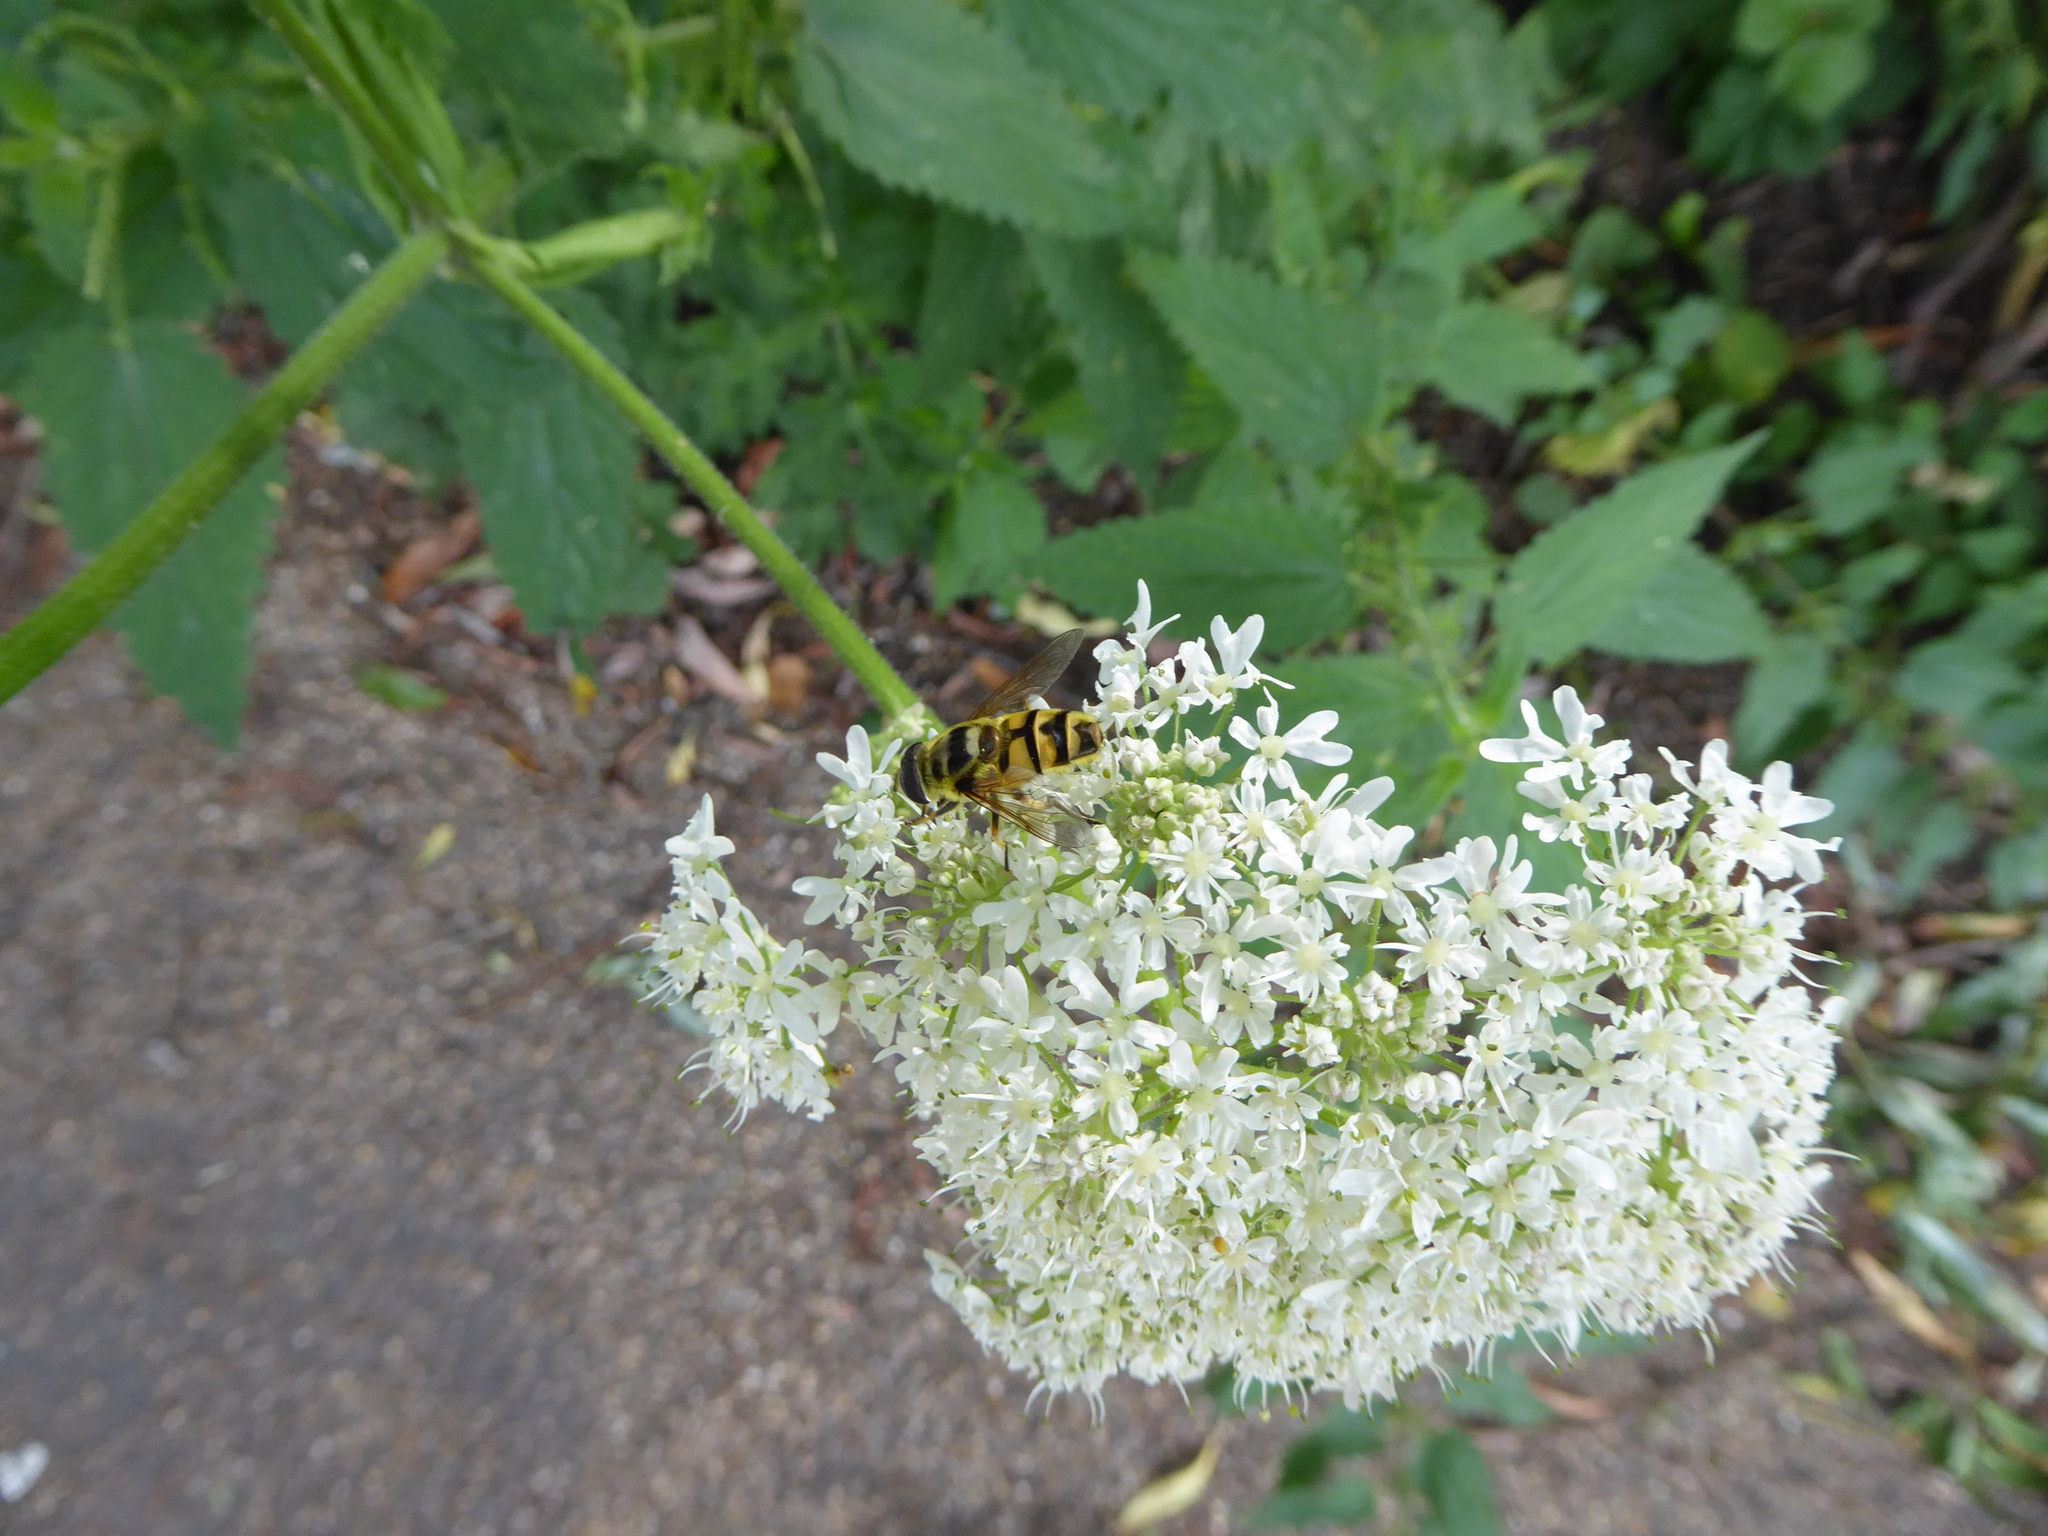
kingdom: Animalia
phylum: Arthropoda
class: Insecta
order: Diptera
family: Syrphidae
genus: Myathropa
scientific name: Myathropa florea
